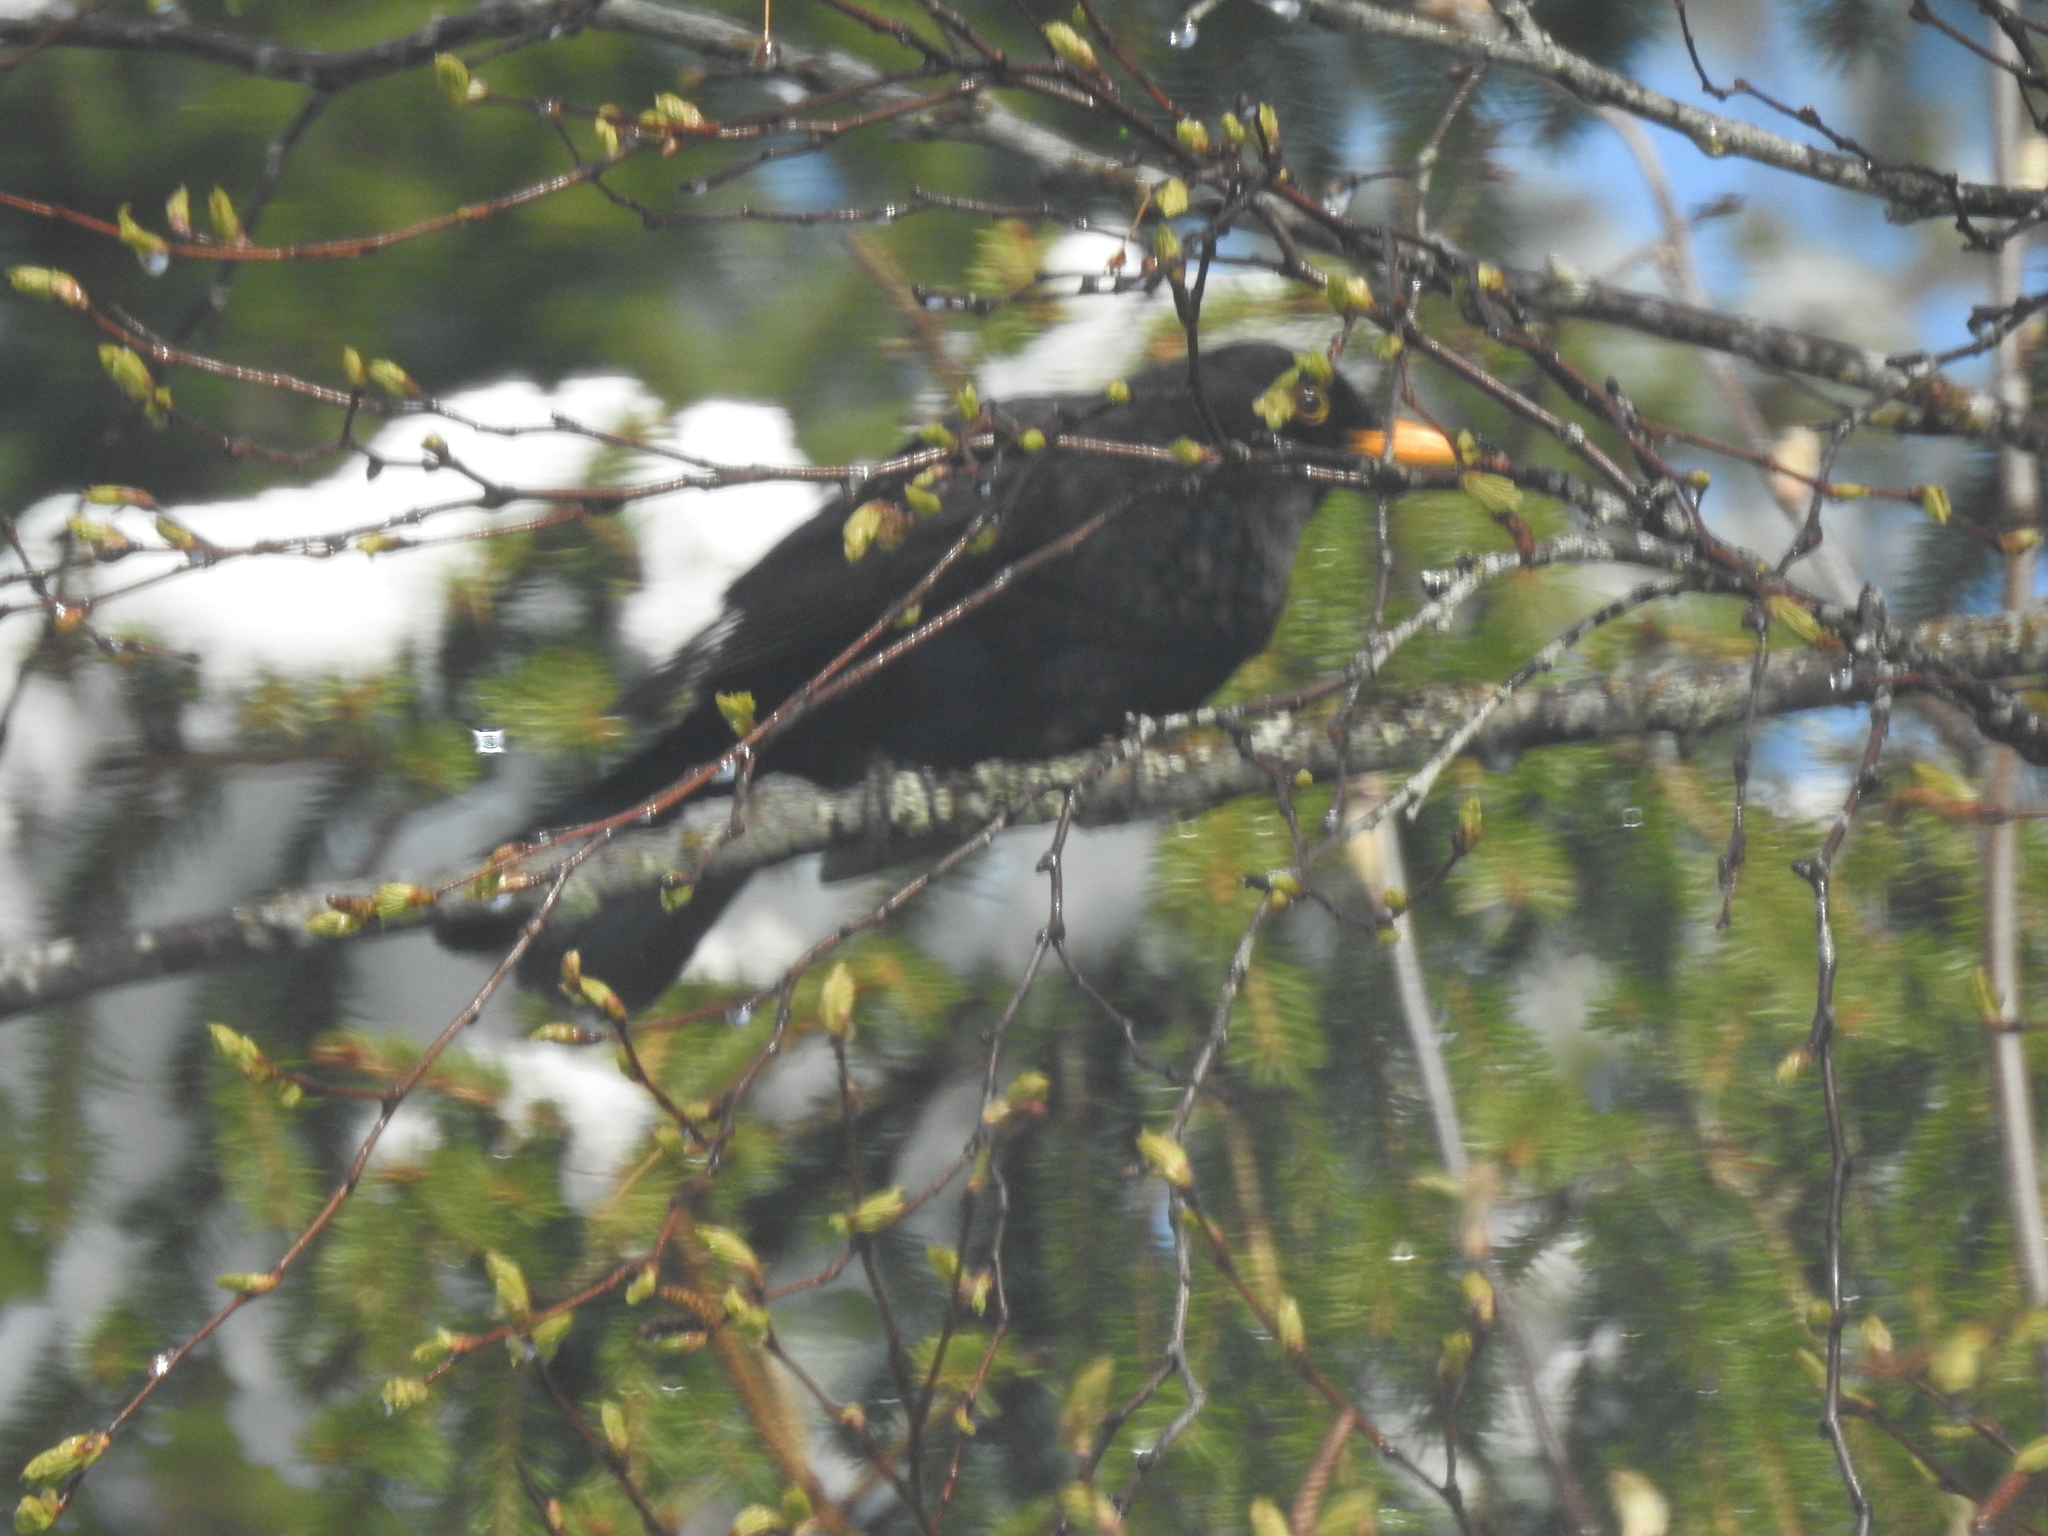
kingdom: Animalia
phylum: Chordata
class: Aves
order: Passeriformes
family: Turdidae
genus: Turdus
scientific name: Turdus merula
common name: Common blackbird
